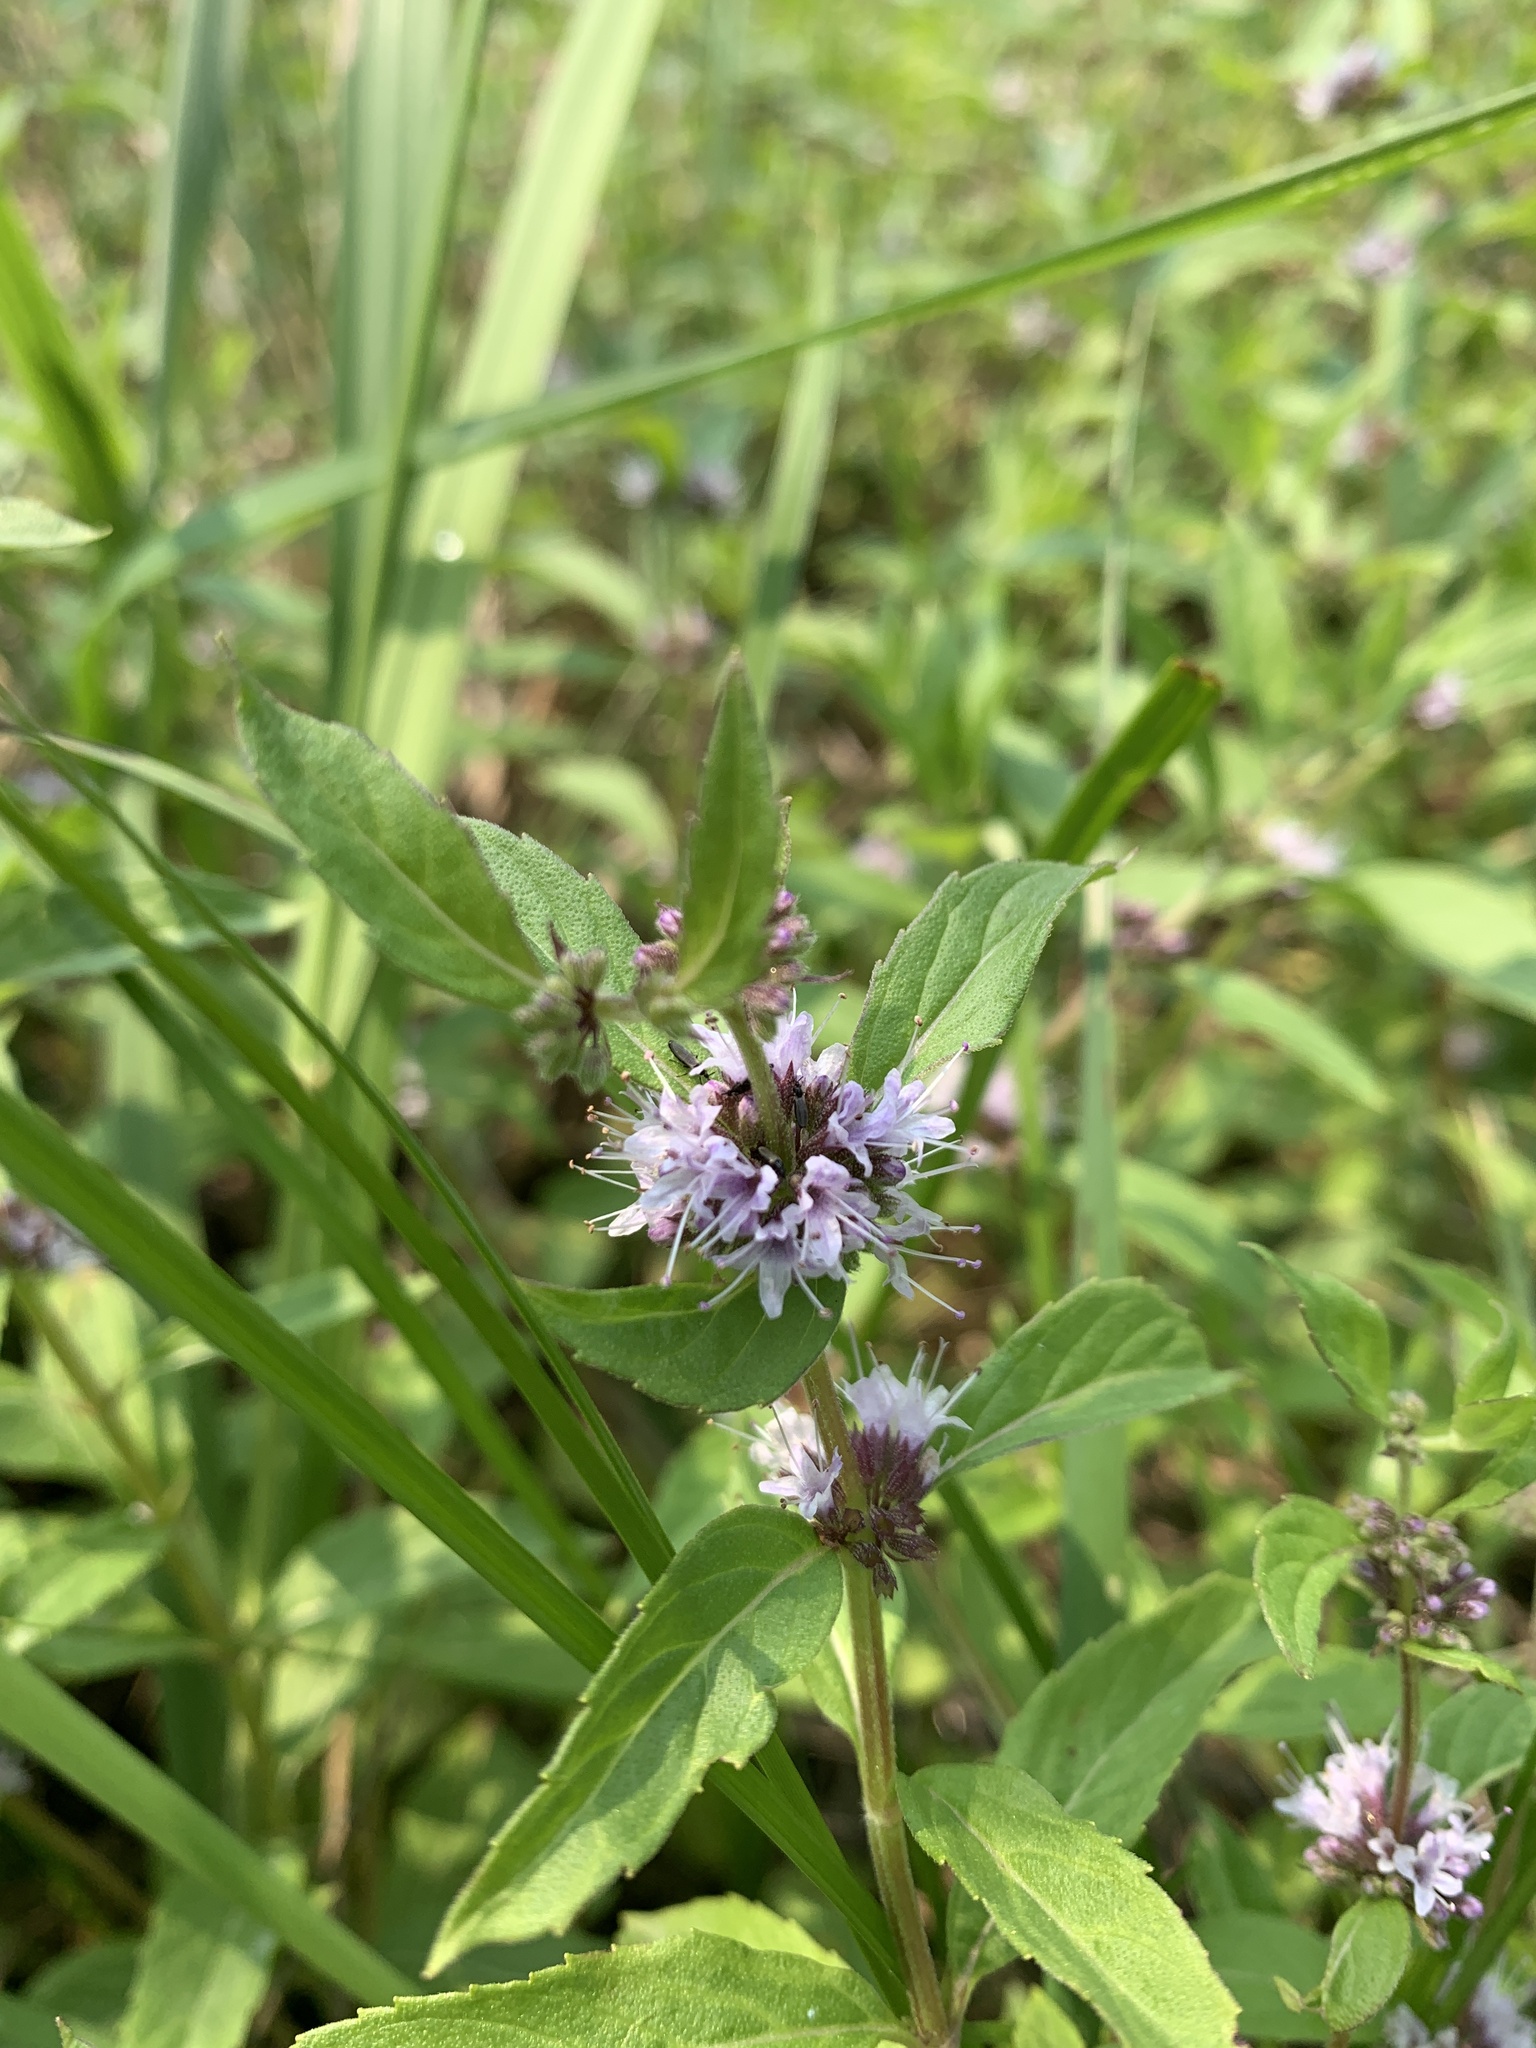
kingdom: Plantae
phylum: Tracheophyta
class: Magnoliopsida
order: Lamiales
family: Lamiaceae
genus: Mentha
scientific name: Mentha canadensis
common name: American corn mint
